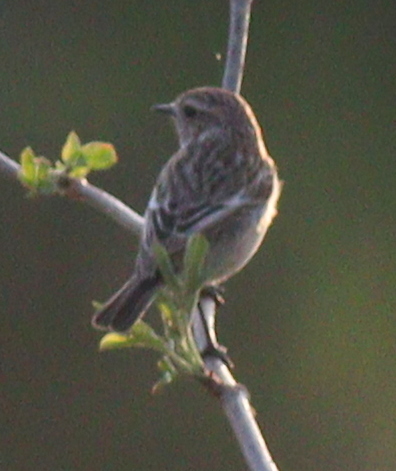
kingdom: Animalia
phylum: Chordata
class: Aves
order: Passeriformes
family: Muscicapidae
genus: Saxicola
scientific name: Saxicola rubicola
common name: European stonechat
